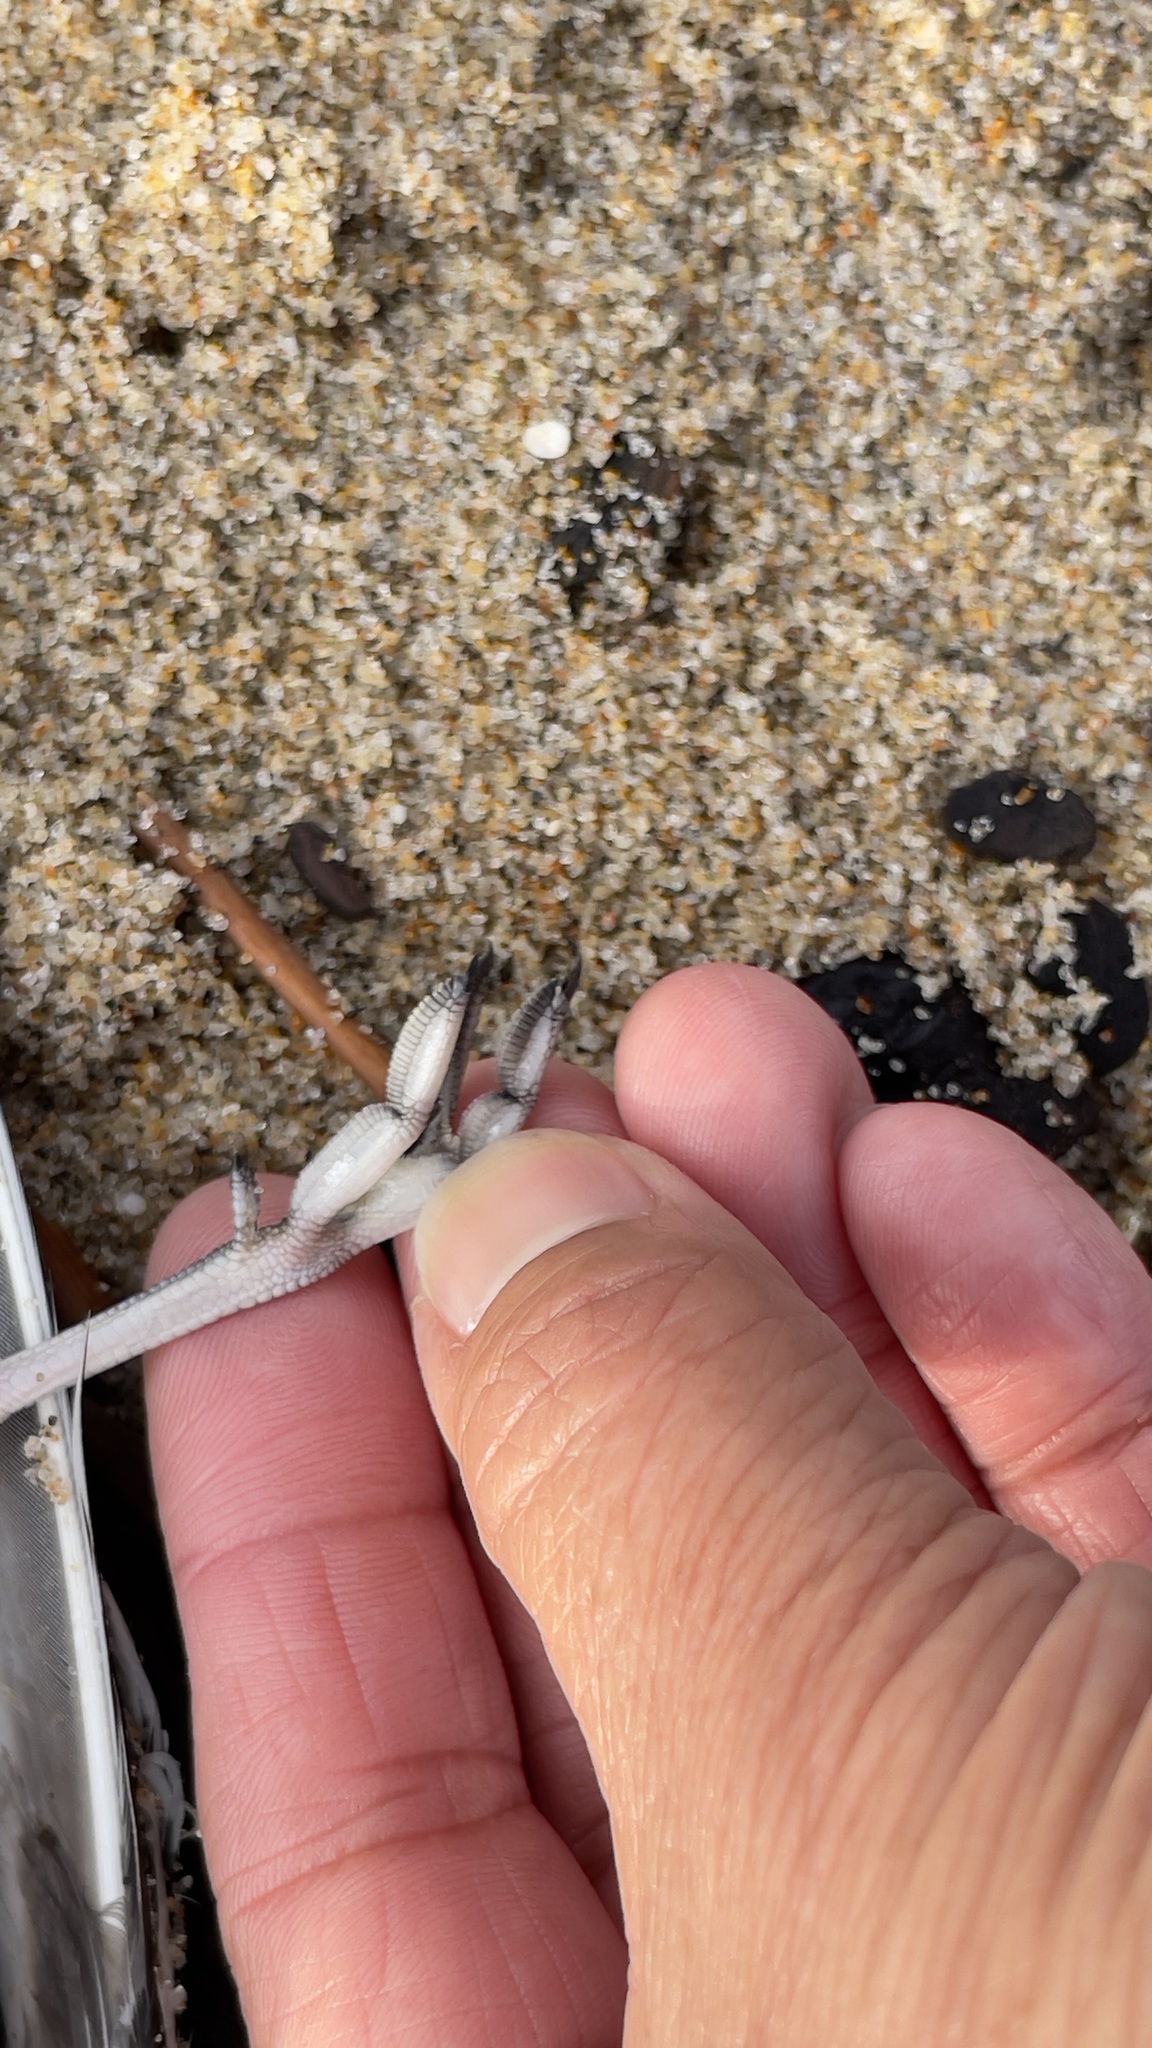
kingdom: Animalia
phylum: Chordata
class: Aves
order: Charadriiformes
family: Scolopacidae
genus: Phalaropus
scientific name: Phalaropus fulicarius
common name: Red phalarope
